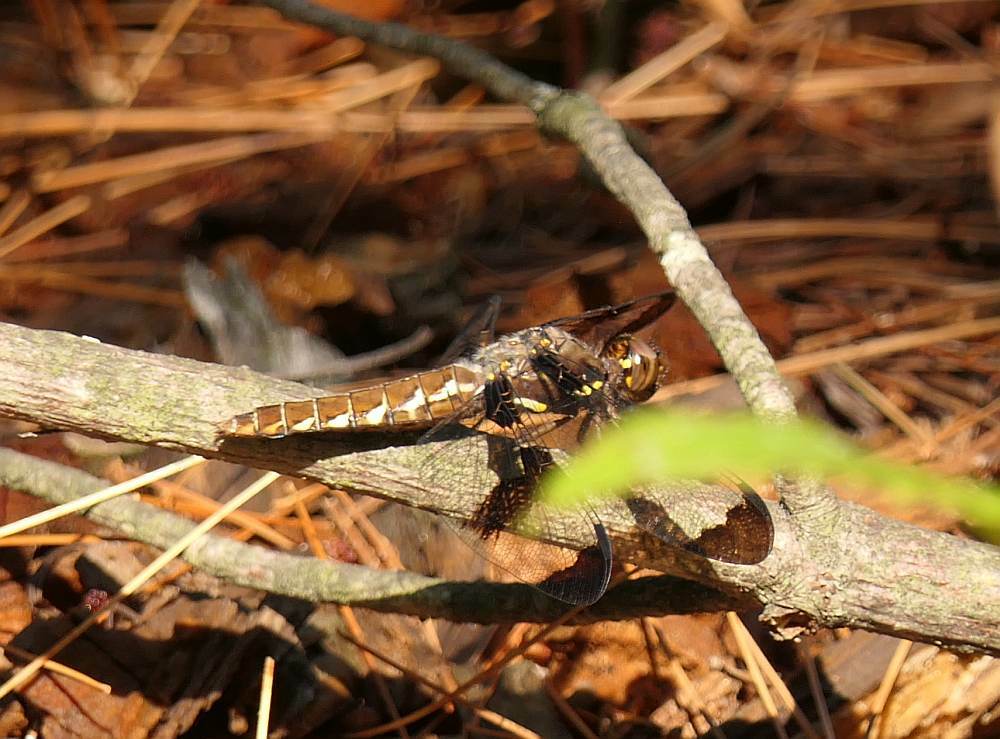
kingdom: Animalia
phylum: Arthropoda
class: Insecta
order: Odonata
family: Libellulidae
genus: Plathemis
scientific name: Plathemis lydia
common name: Common whitetail
